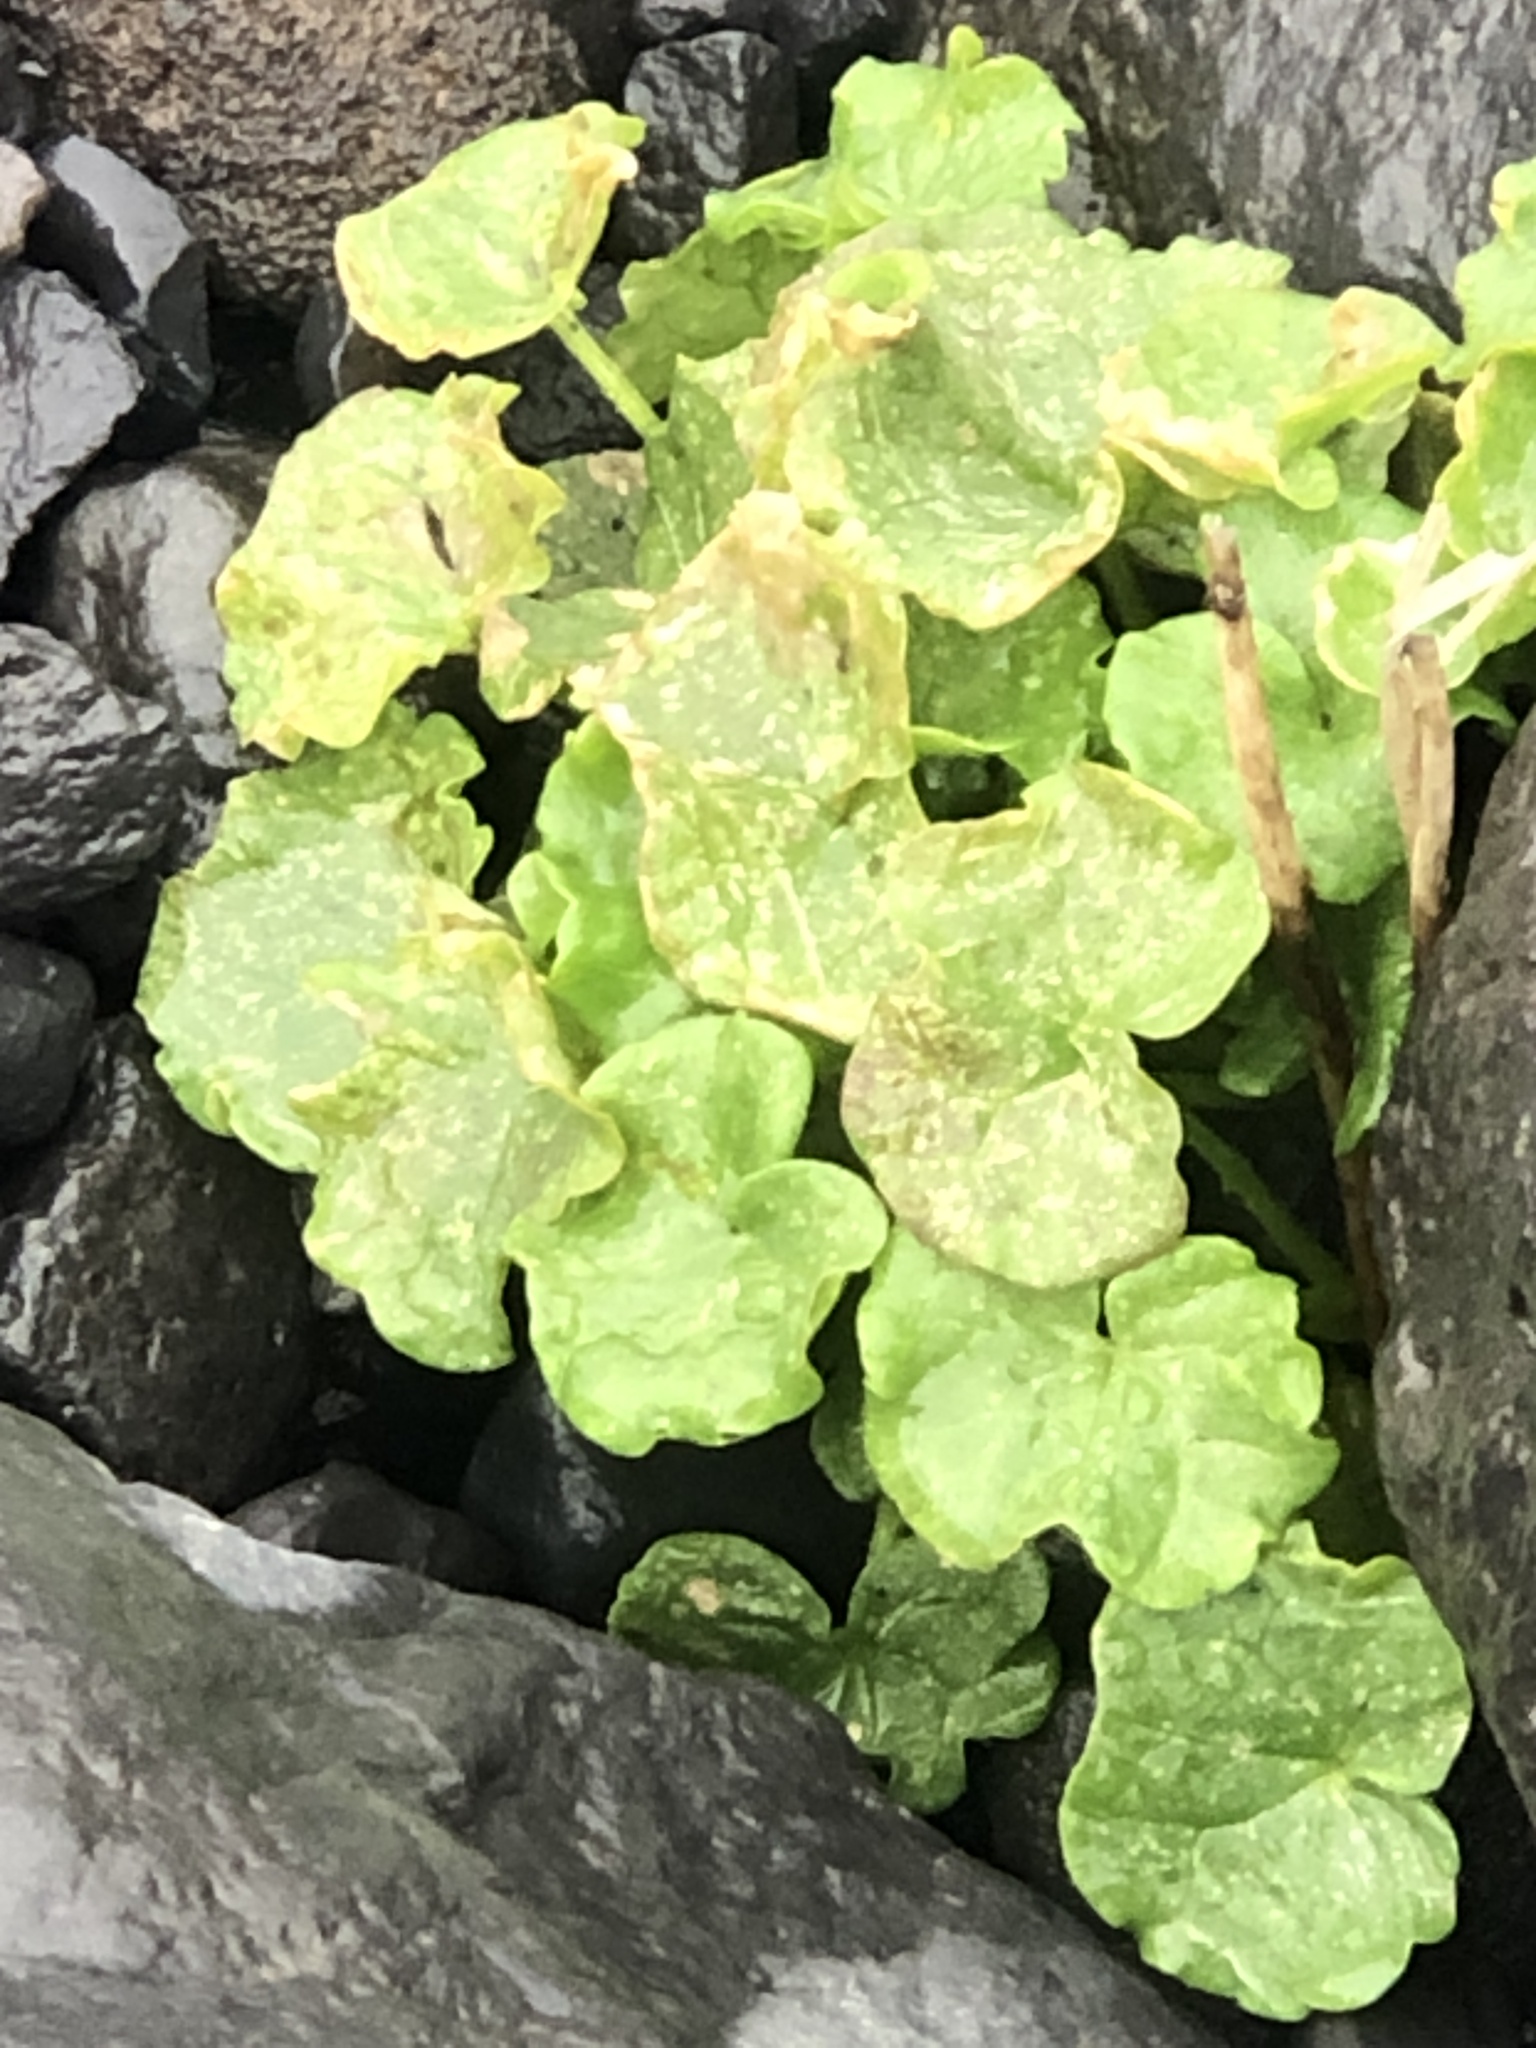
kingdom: Plantae
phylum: Tracheophyta
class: Magnoliopsida
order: Caryophyllales
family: Polygonaceae
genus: Oxyria
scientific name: Oxyria digyna
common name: Alpine mountain-sorrel
